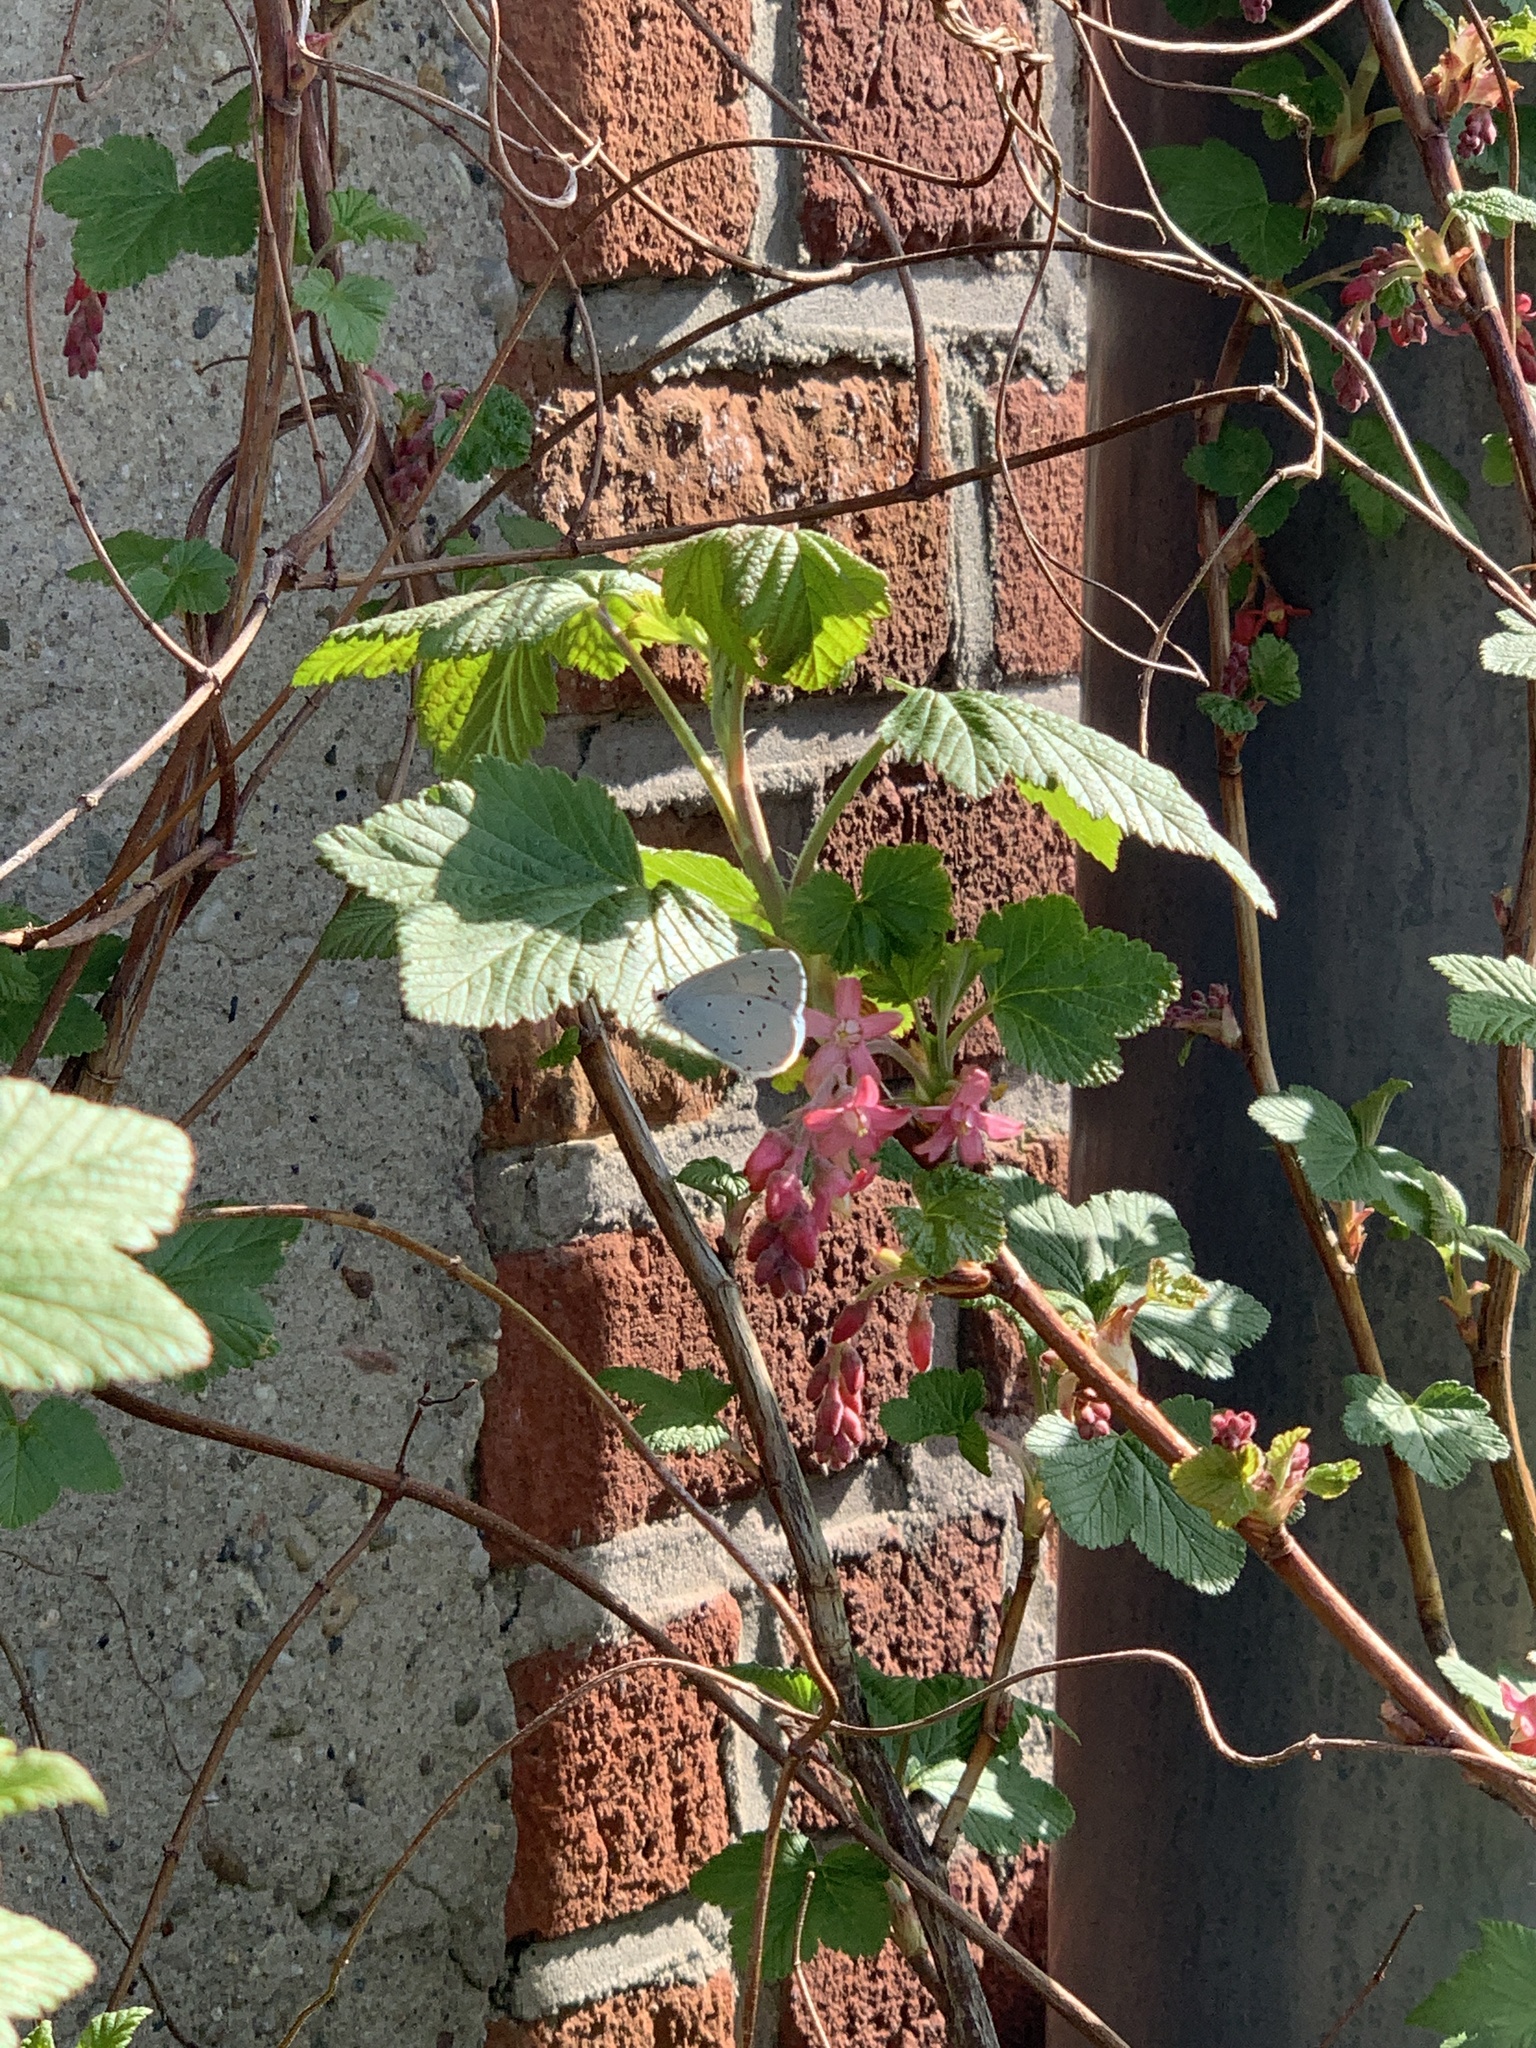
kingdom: Animalia
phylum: Arthropoda
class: Insecta
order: Lepidoptera
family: Lycaenidae
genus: Celastrina
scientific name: Celastrina argiolus
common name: Holly blue
